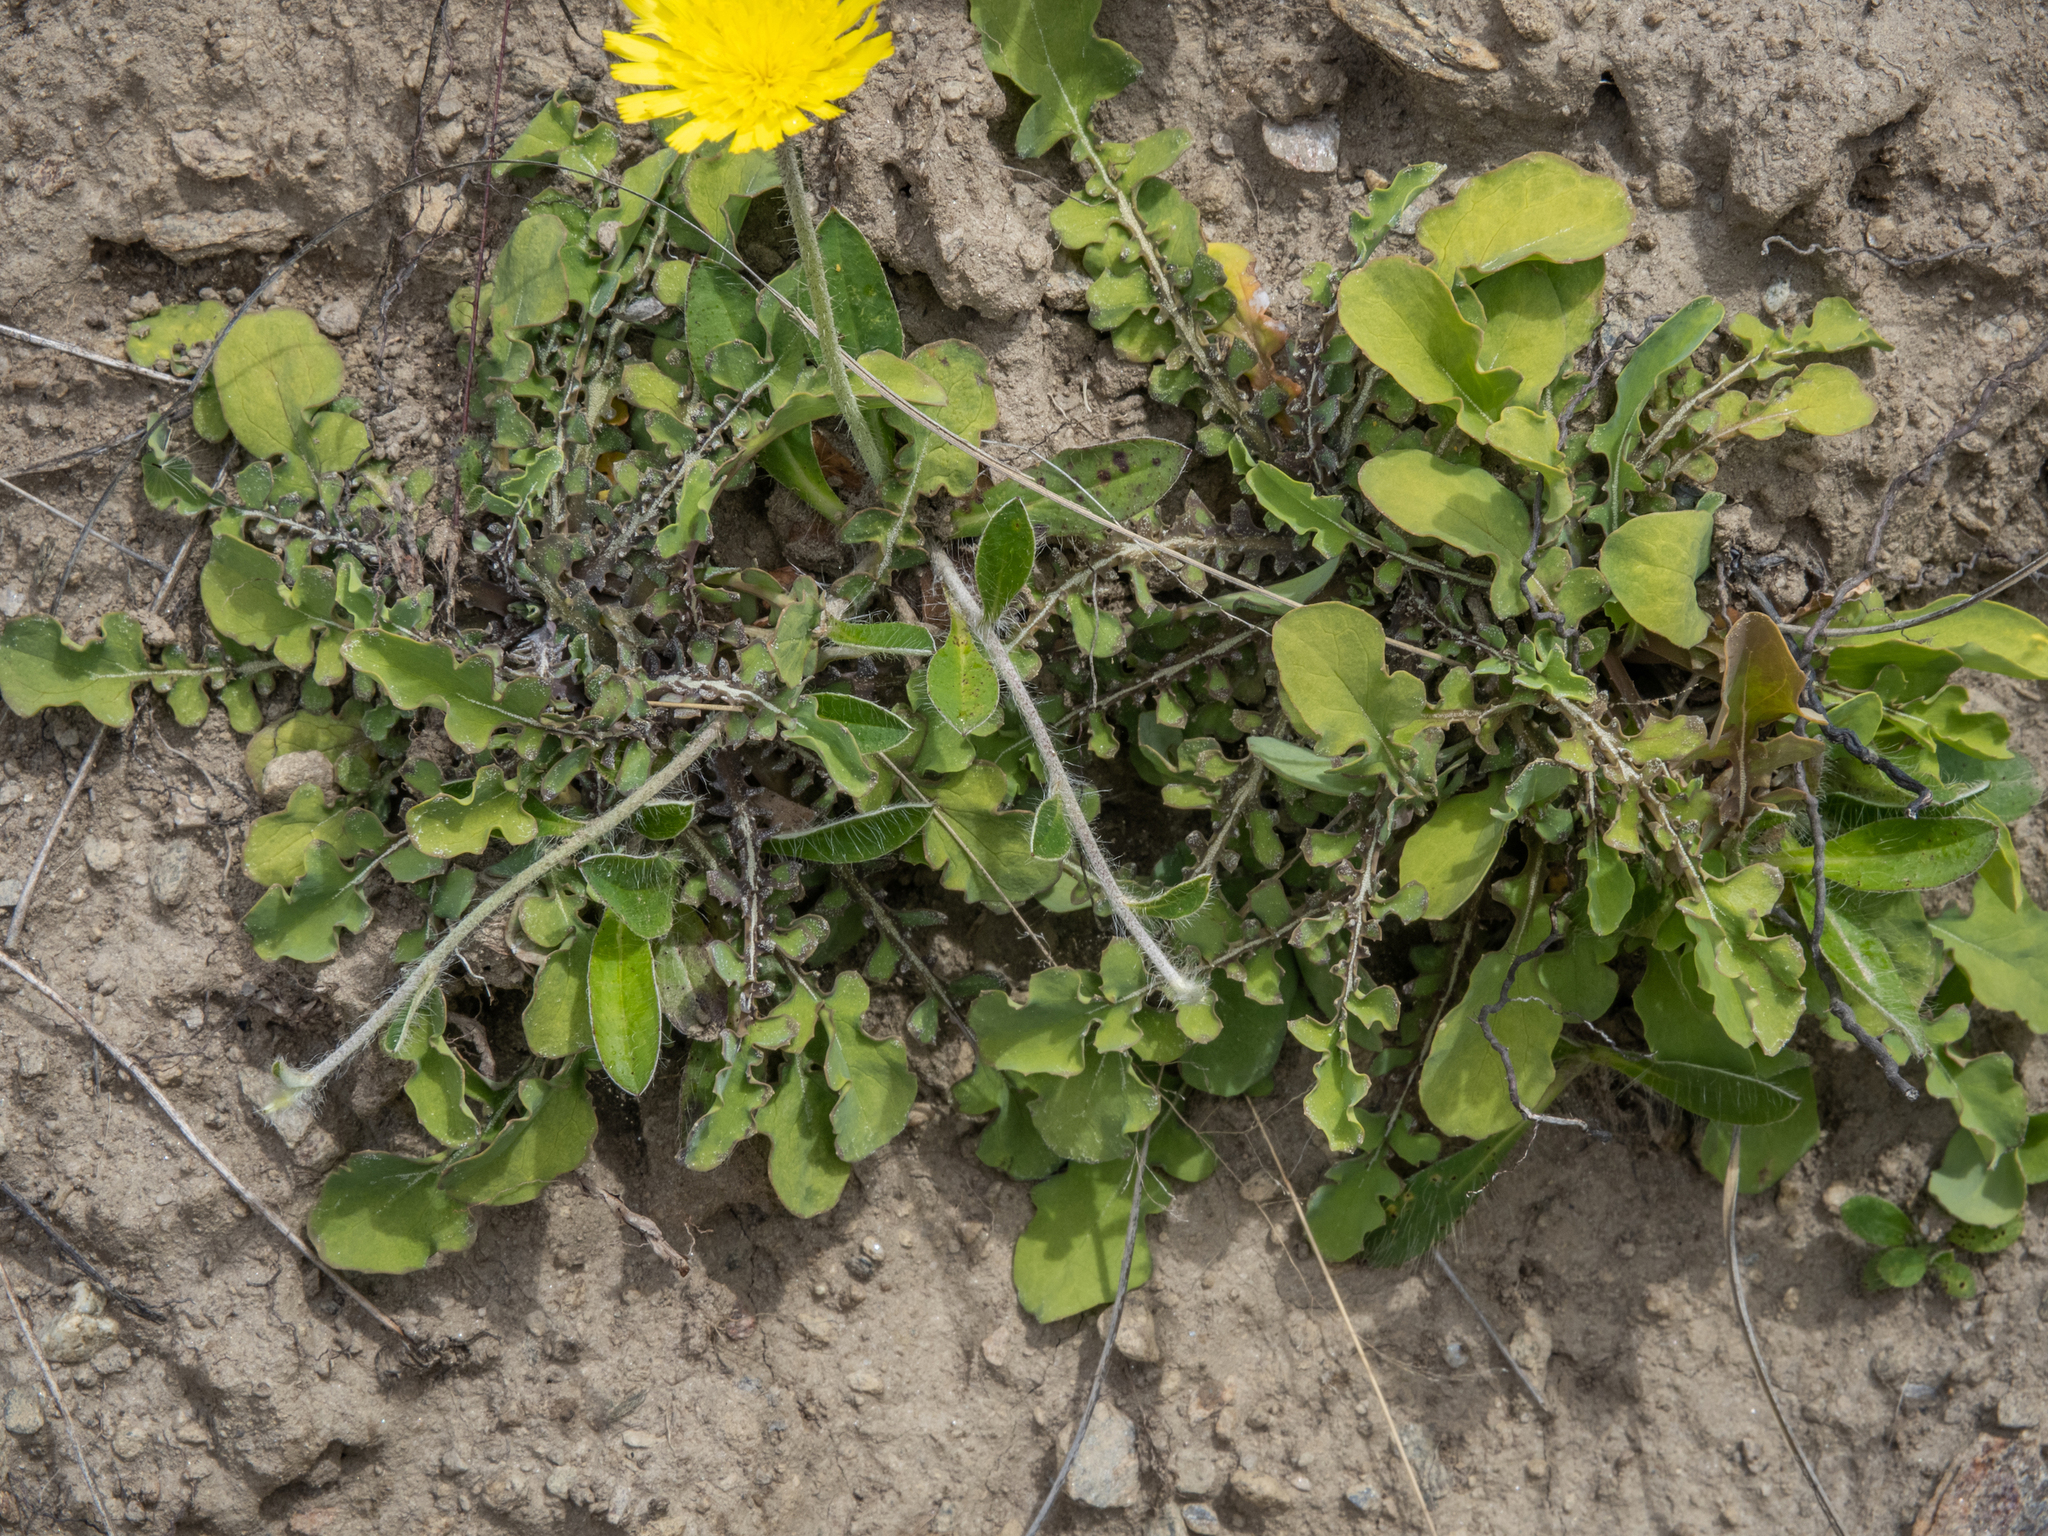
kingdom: Plantae
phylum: Tracheophyta
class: Magnoliopsida
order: Asterales
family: Asteraceae
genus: Sonchus
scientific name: Sonchus novae-zelandiae
